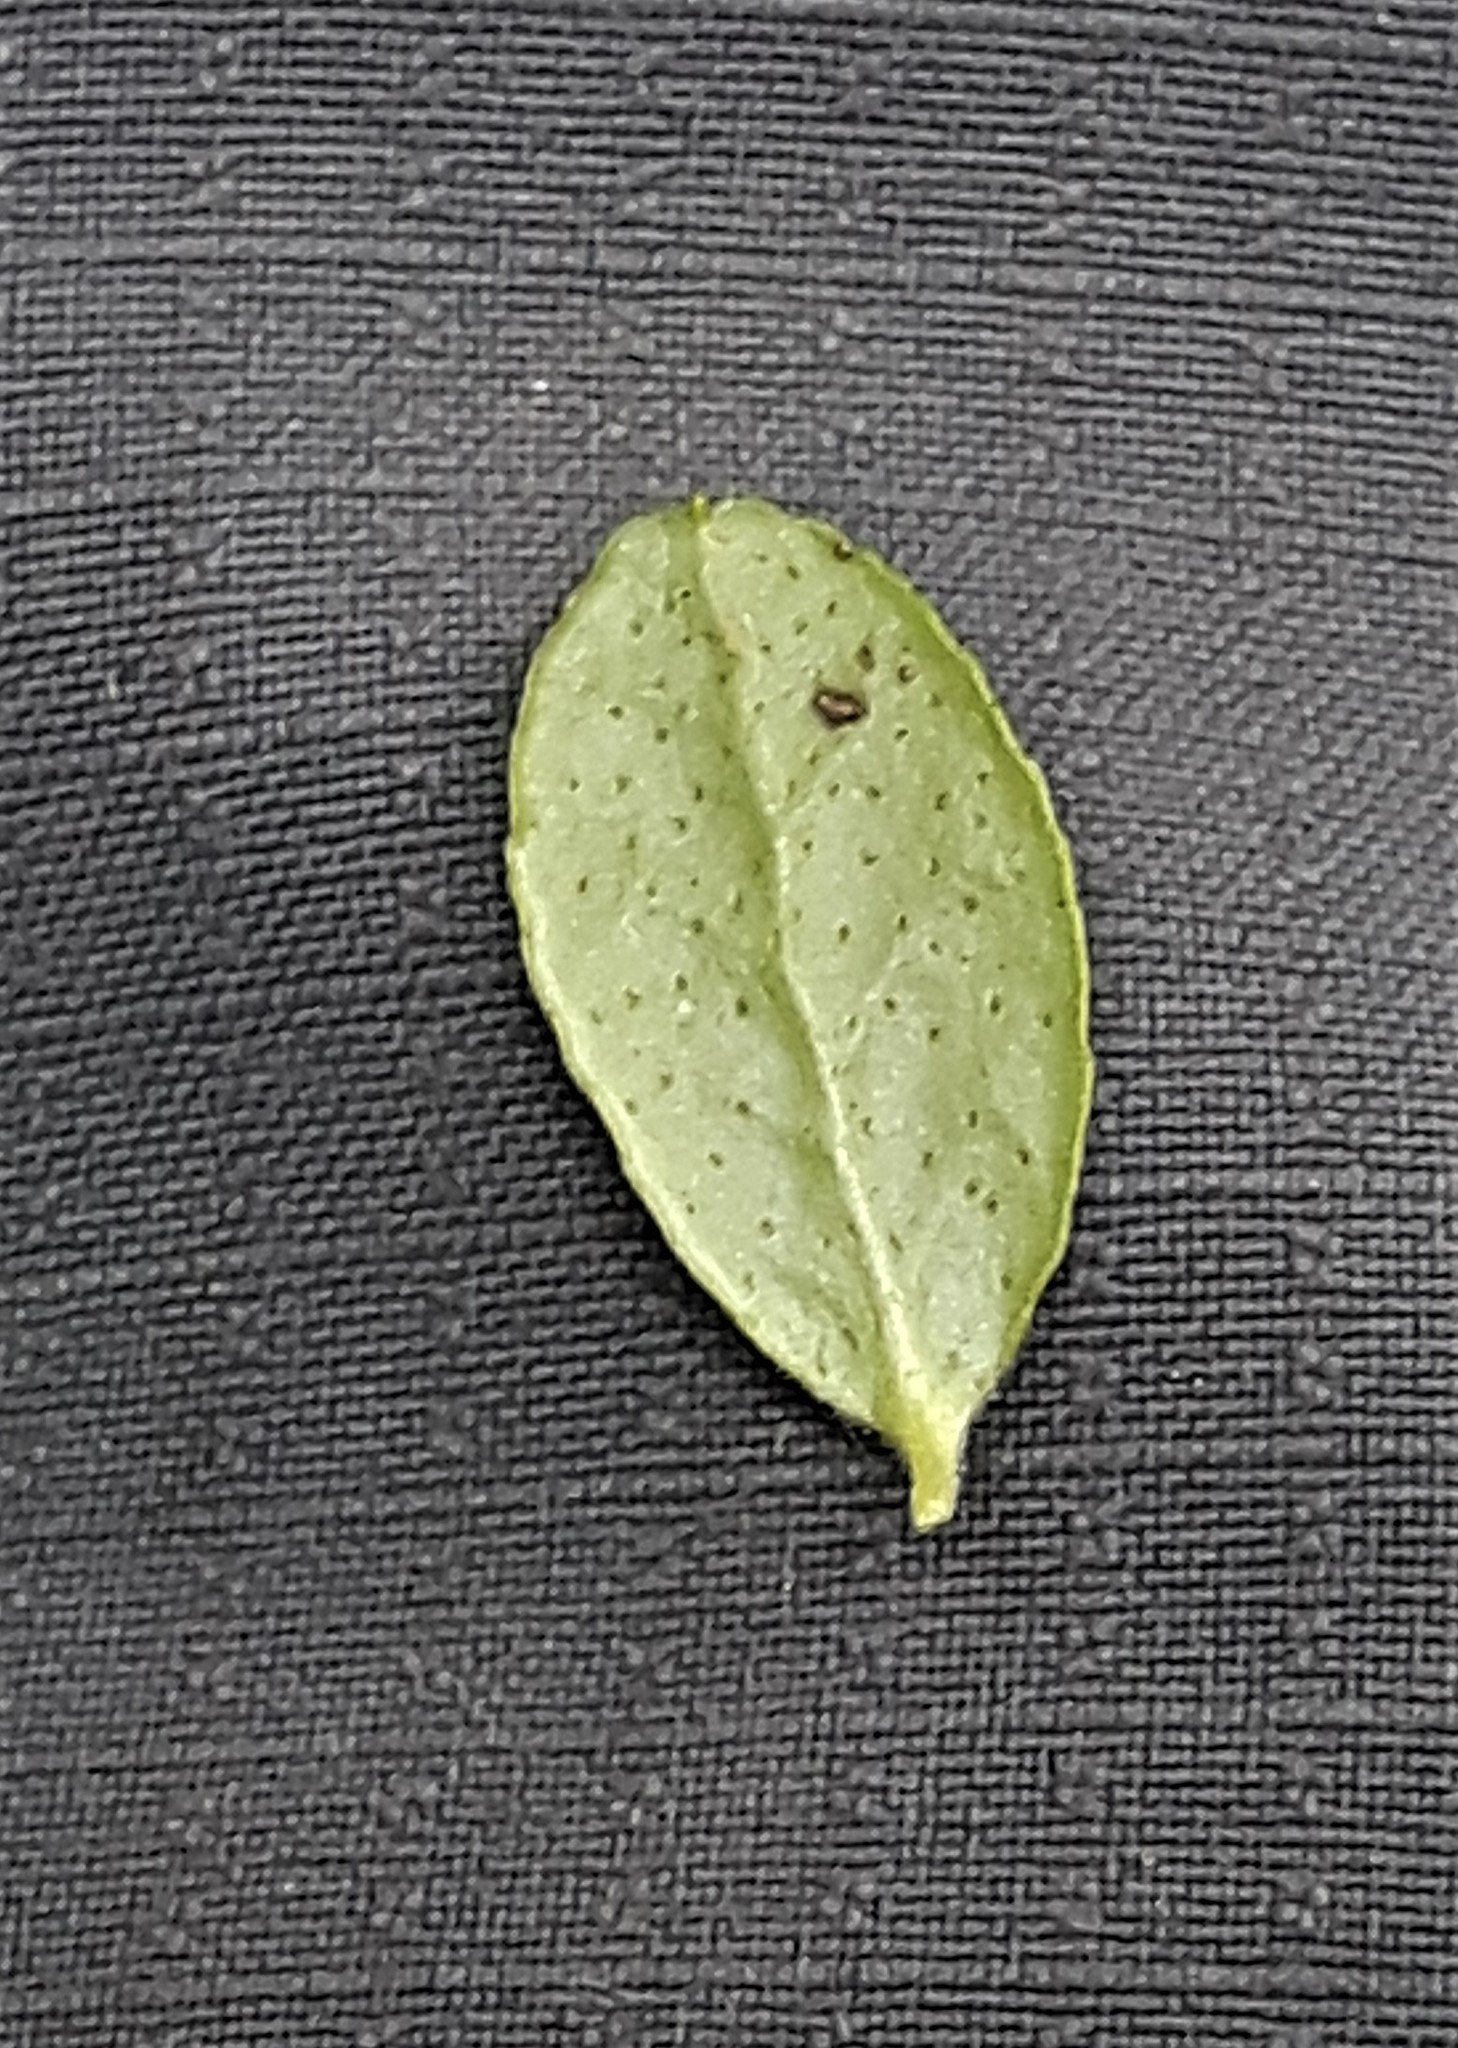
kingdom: Plantae
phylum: Tracheophyta
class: Magnoliopsida
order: Ericales
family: Ericaceae
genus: Vaccinium
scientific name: Vaccinium vitis-idaea
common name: Cowberry
